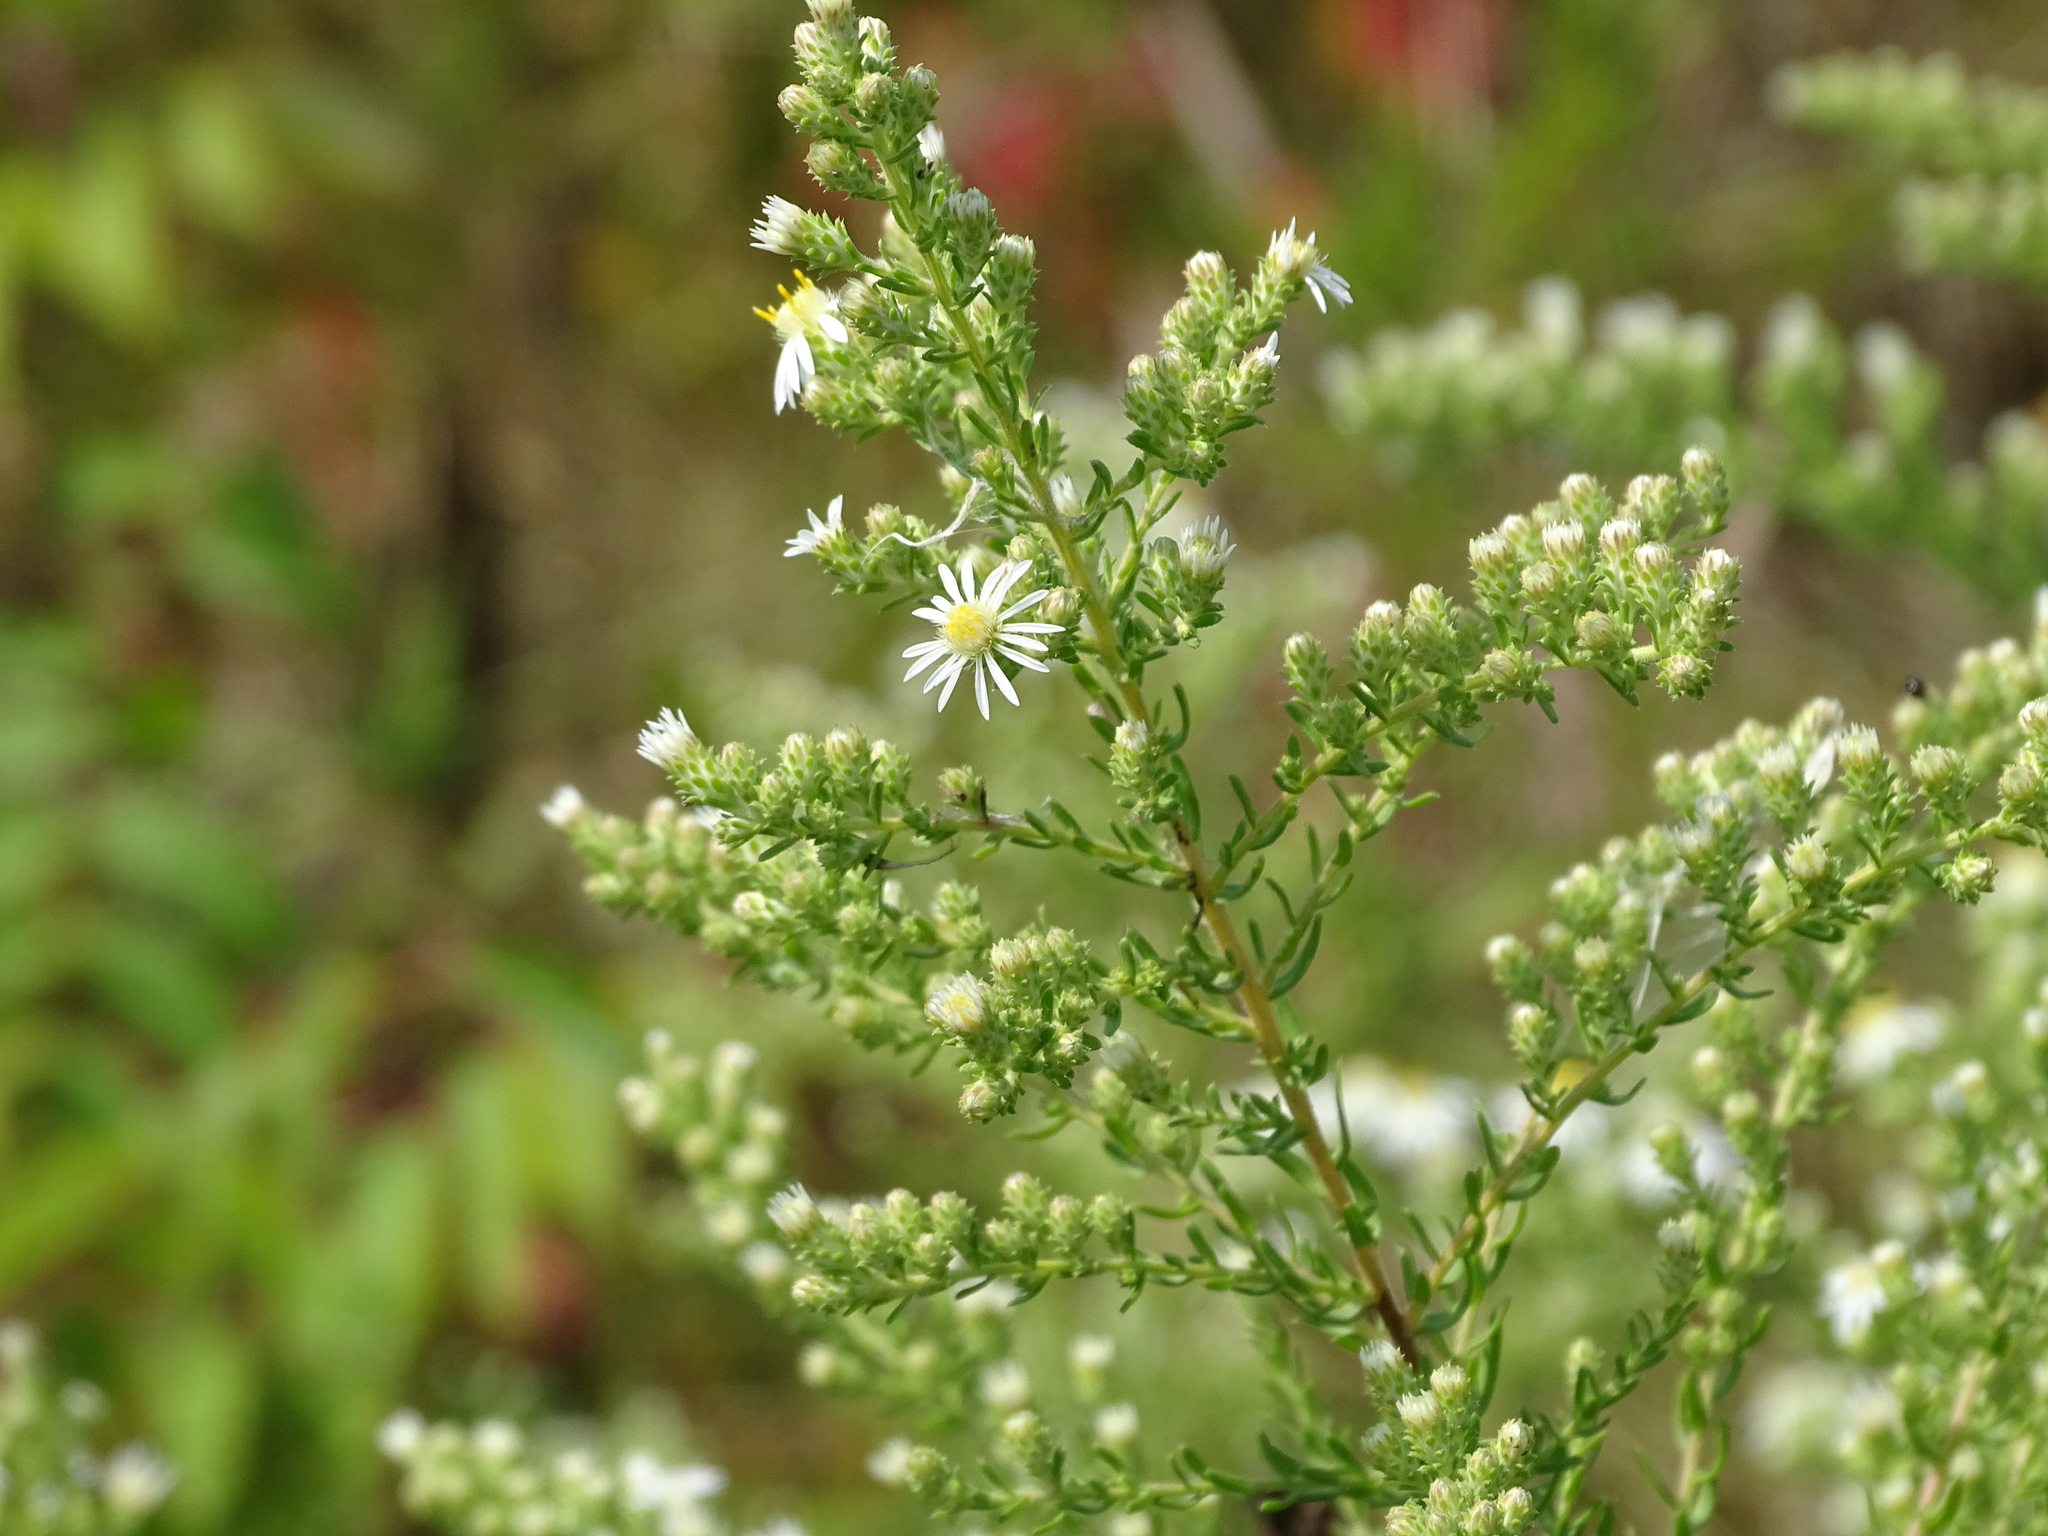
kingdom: Plantae
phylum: Tracheophyta
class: Magnoliopsida
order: Asterales
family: Asteraceae
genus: Symphyotrichum
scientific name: Symphyotrichum ericoides
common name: Heath aster
